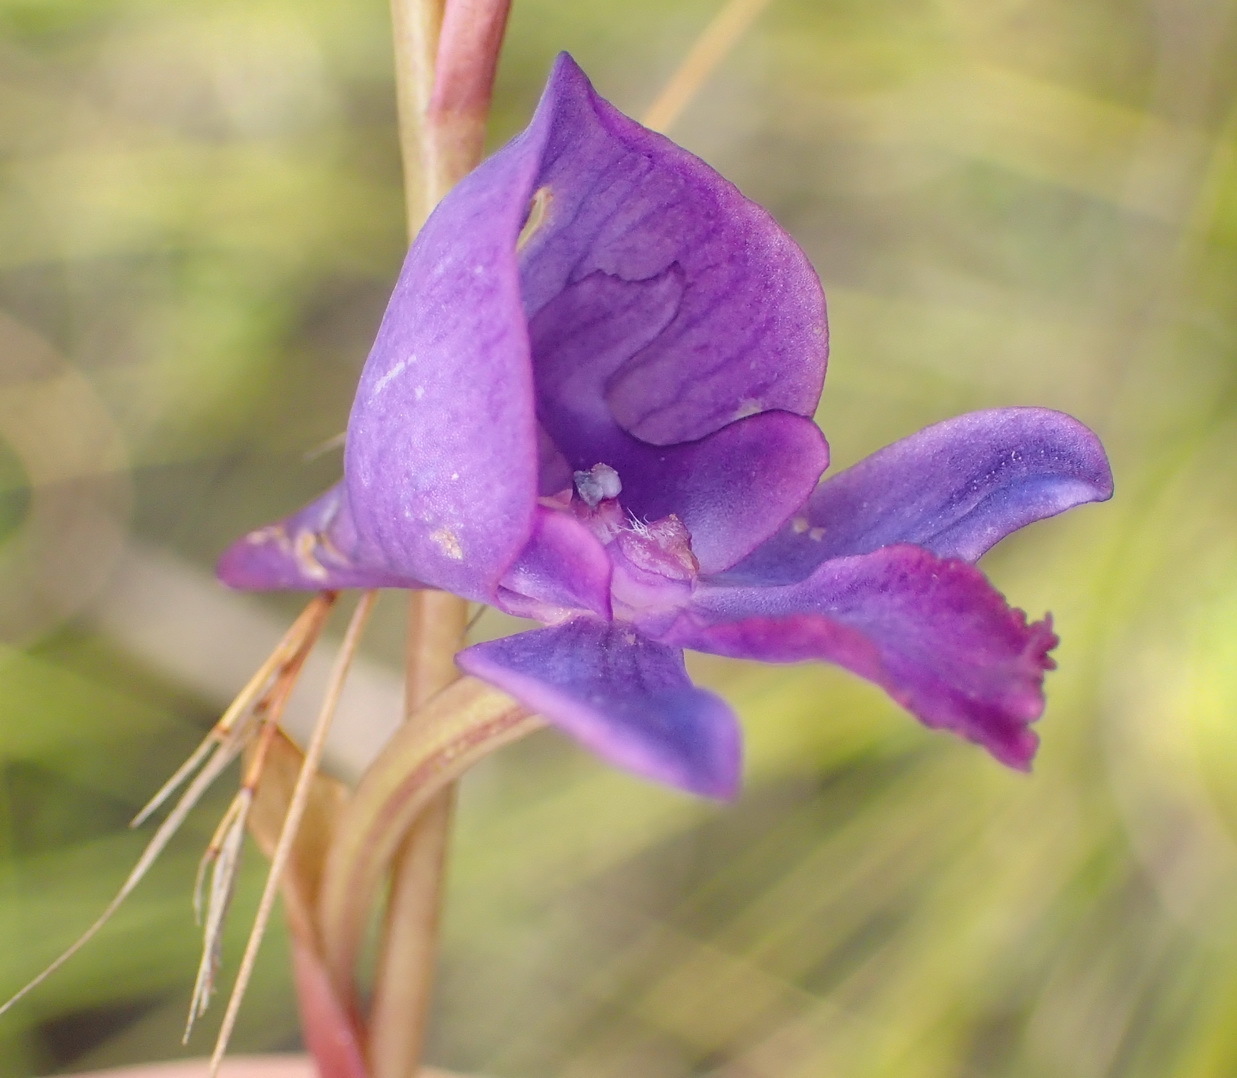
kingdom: Plantae
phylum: Tracheophyta
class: Liliopsida
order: Asparagales
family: Orchidaceae
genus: Disa
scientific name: Disa hians
